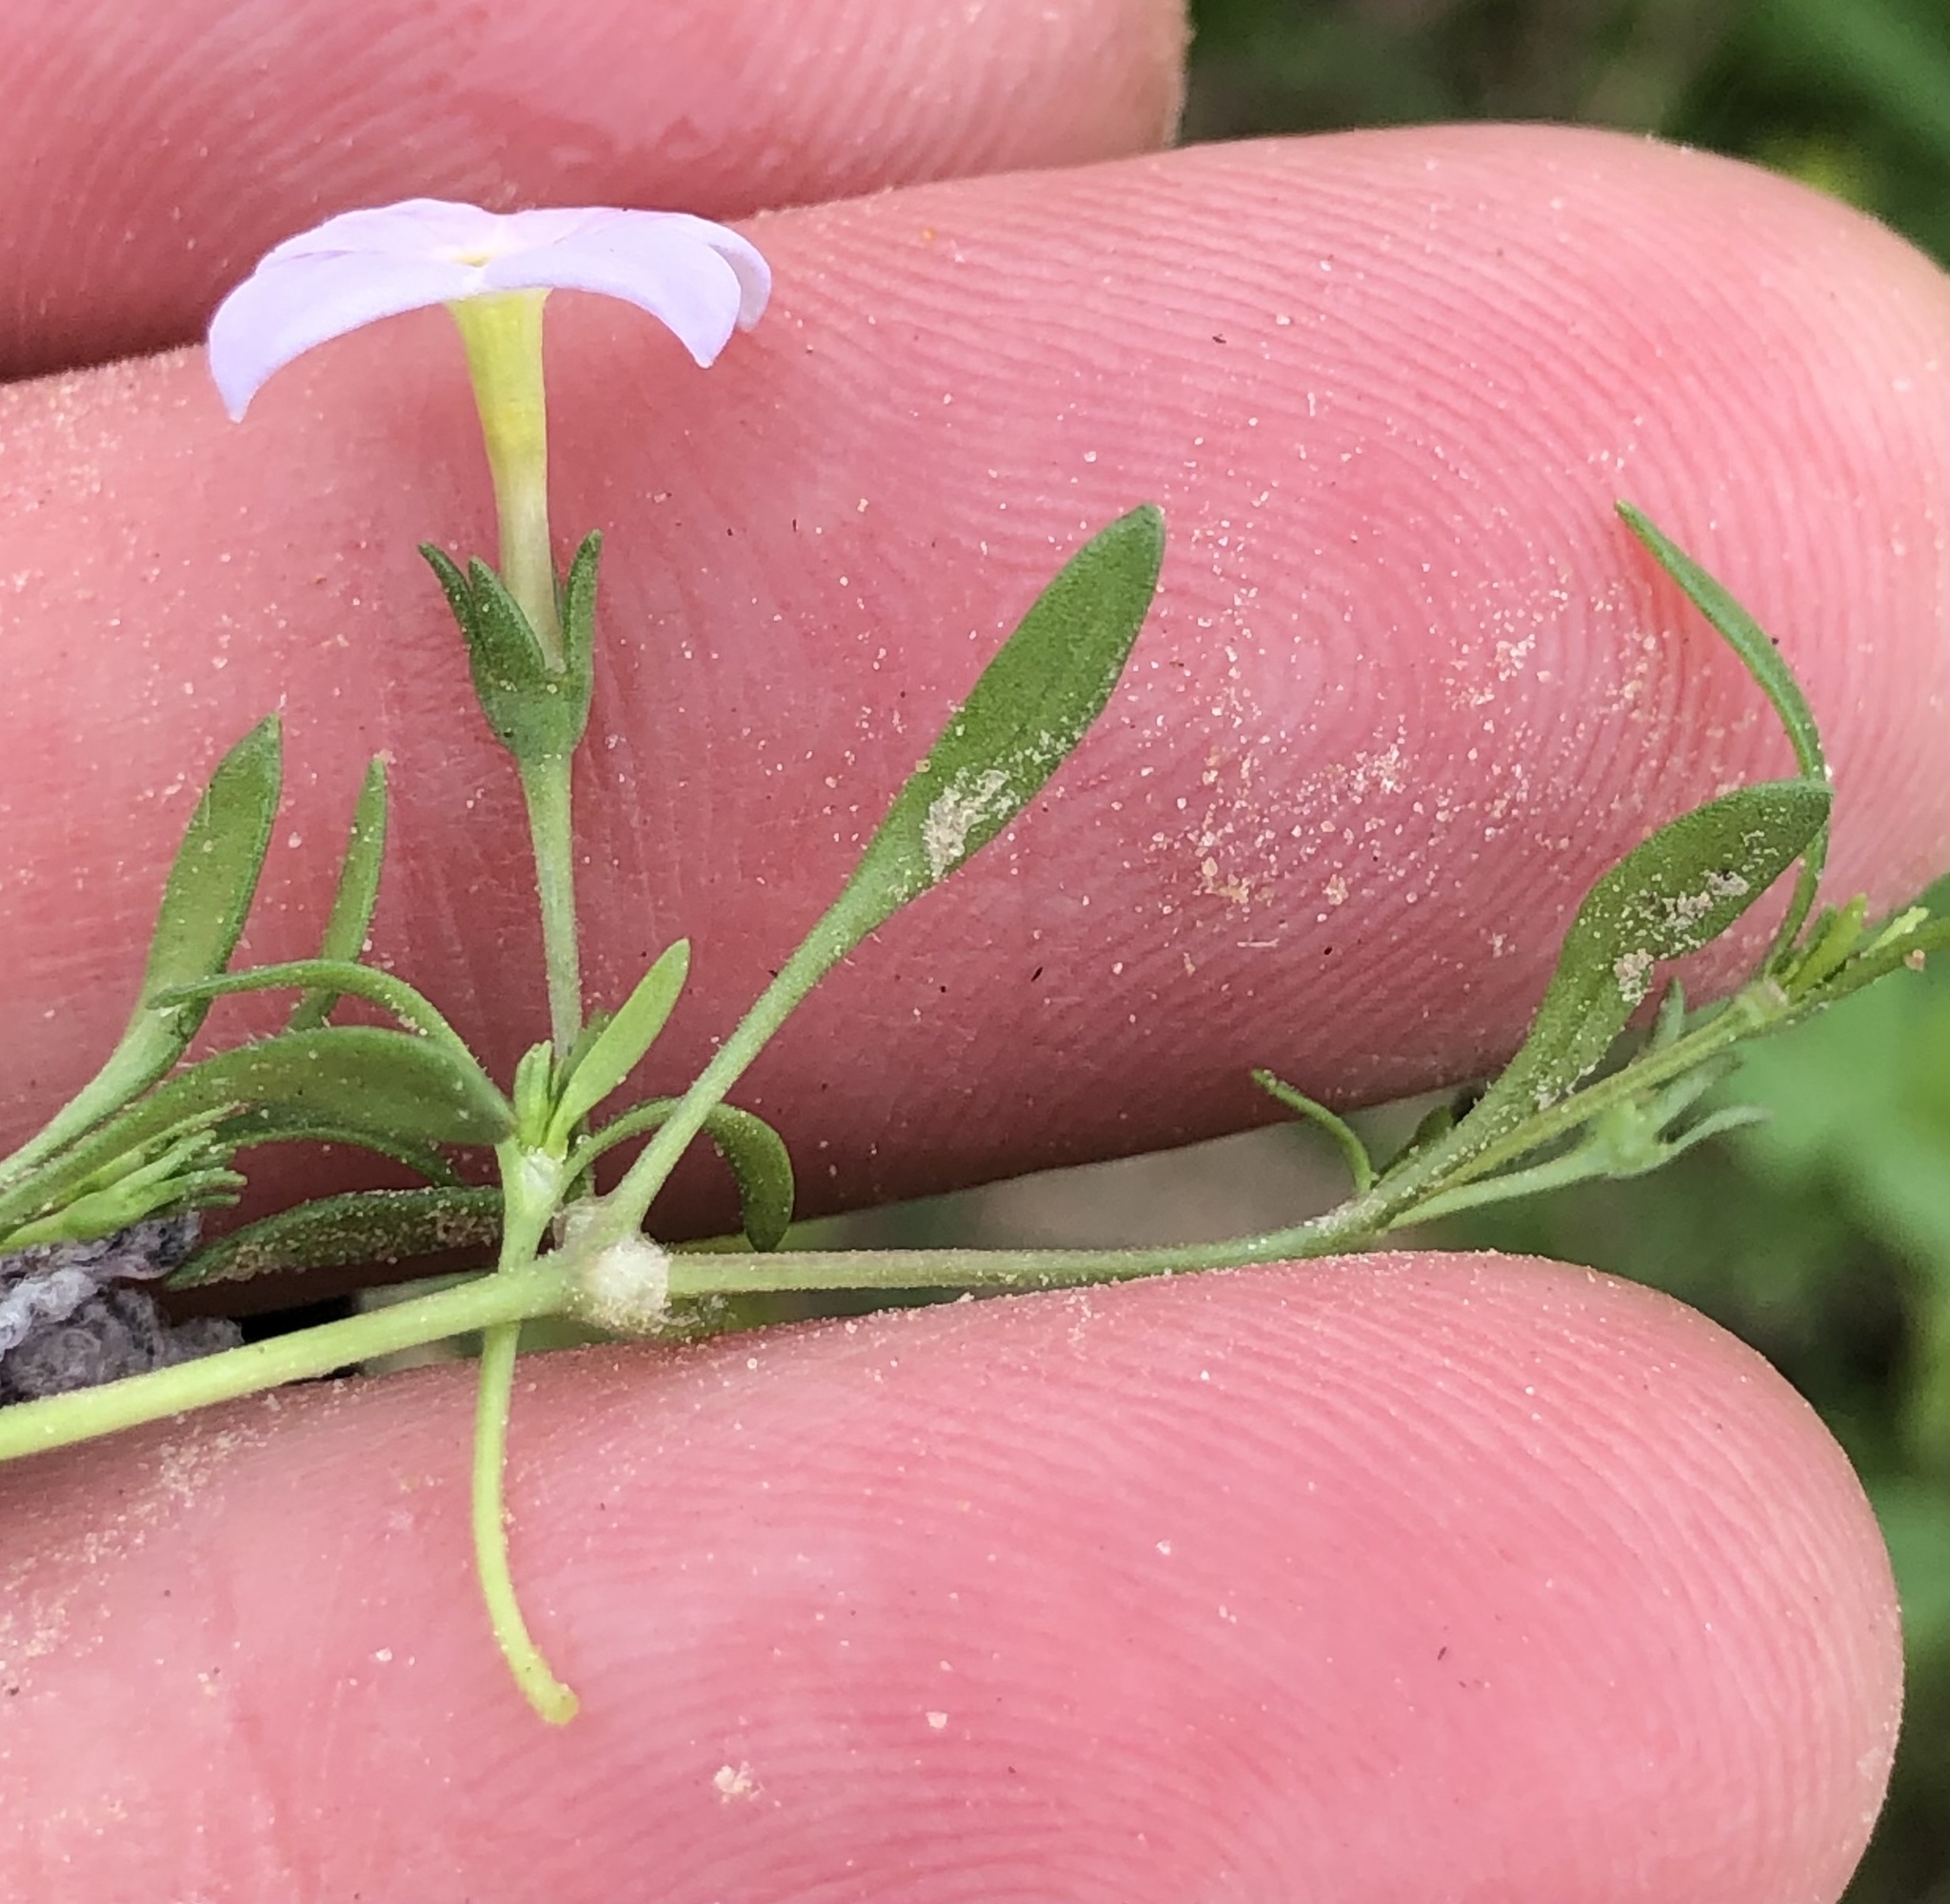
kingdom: Plantae
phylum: Tracheophyta
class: Magnoliopsida
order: Gentianales
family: Rubiaceae
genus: Houstonia
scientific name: Houstonia rosea
